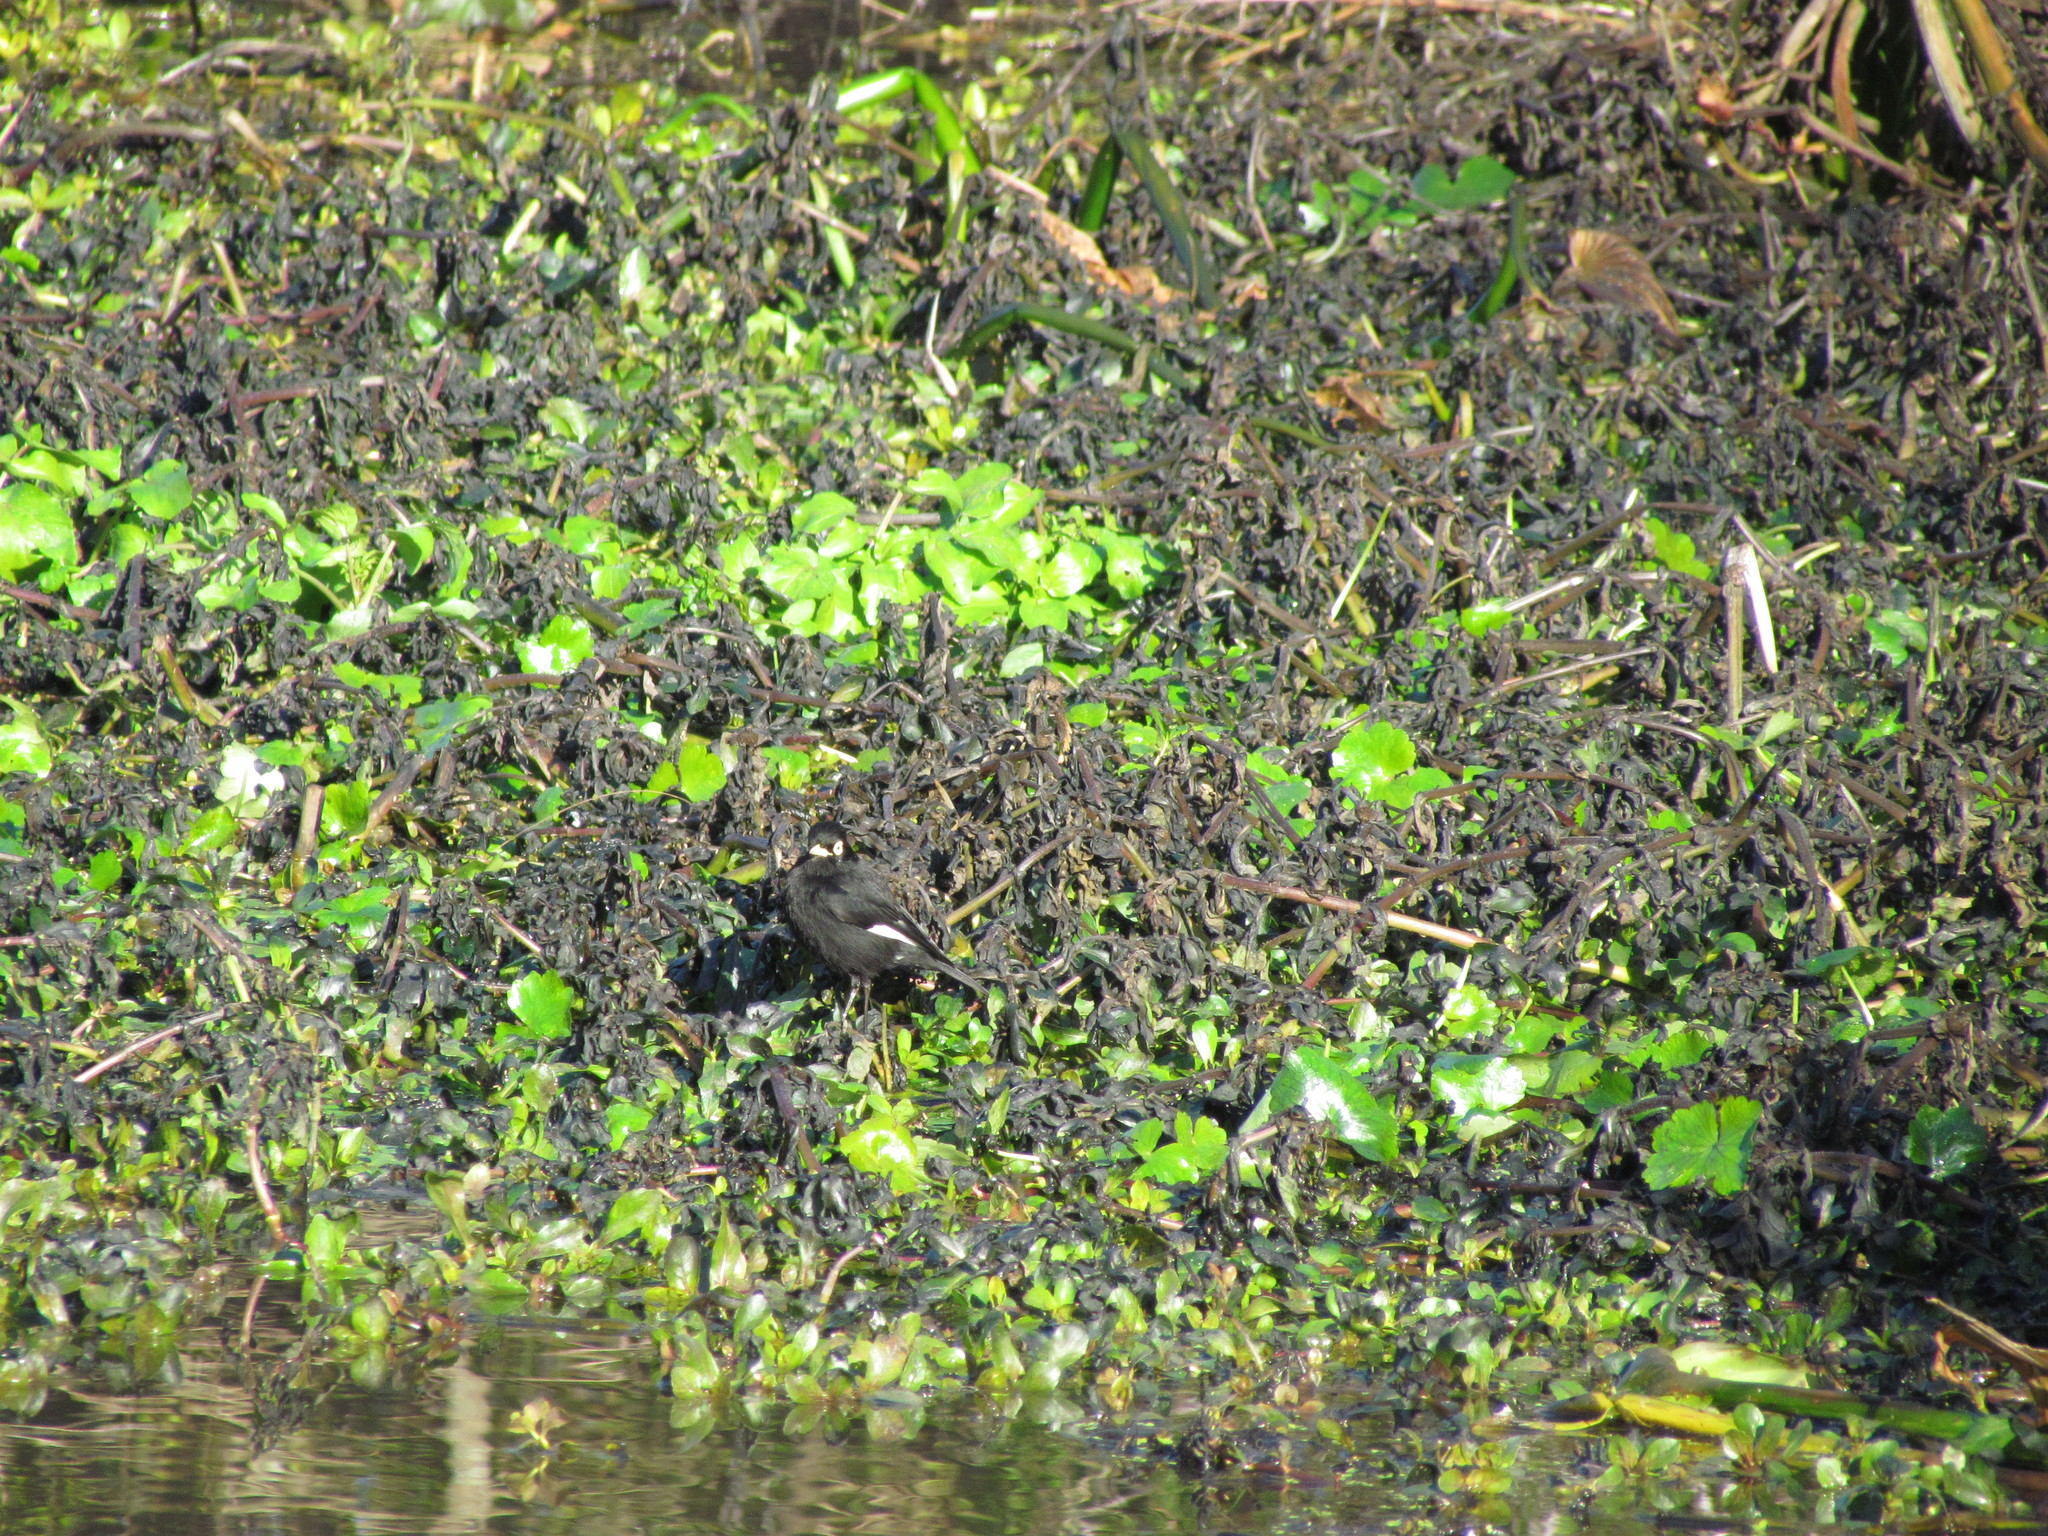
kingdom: Animalia
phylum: Chordata
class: Aves
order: Passeriformes
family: Tyrannidae
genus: Hymenops
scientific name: Hymenops perspicillatus
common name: Spectacled tyrant
